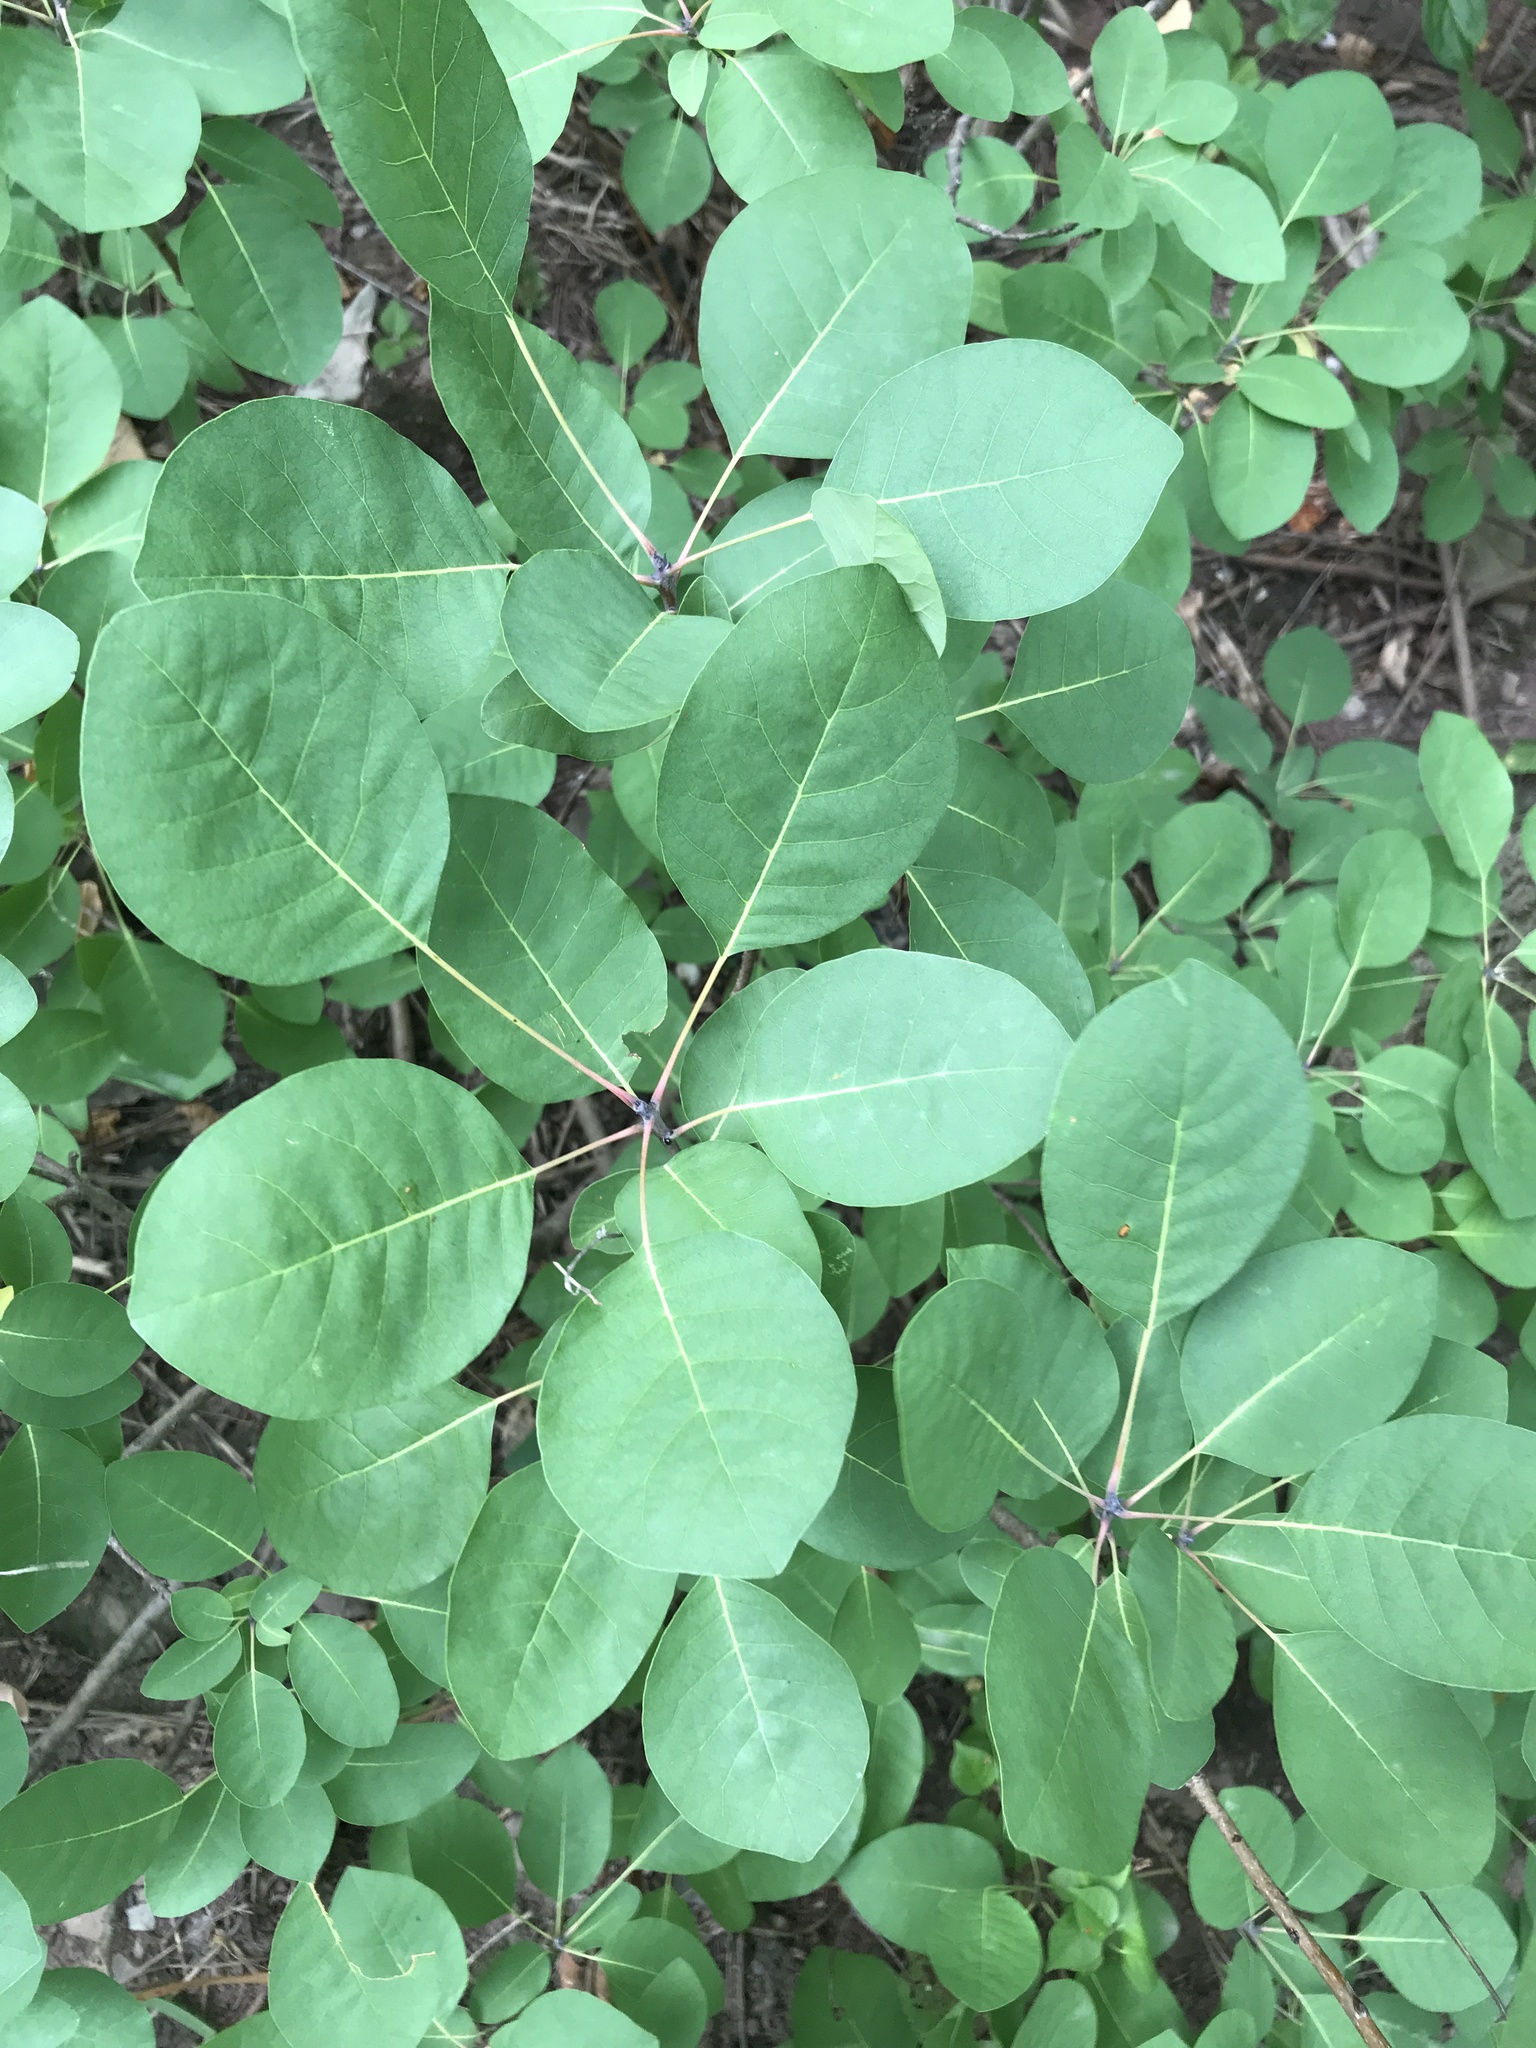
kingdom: Plantae
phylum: Tracheophyta
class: Magnoliopsida
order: Sapindales
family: Anacardiaceae
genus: Cotinus
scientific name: Cotinus coggygria
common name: Smoke-tree
